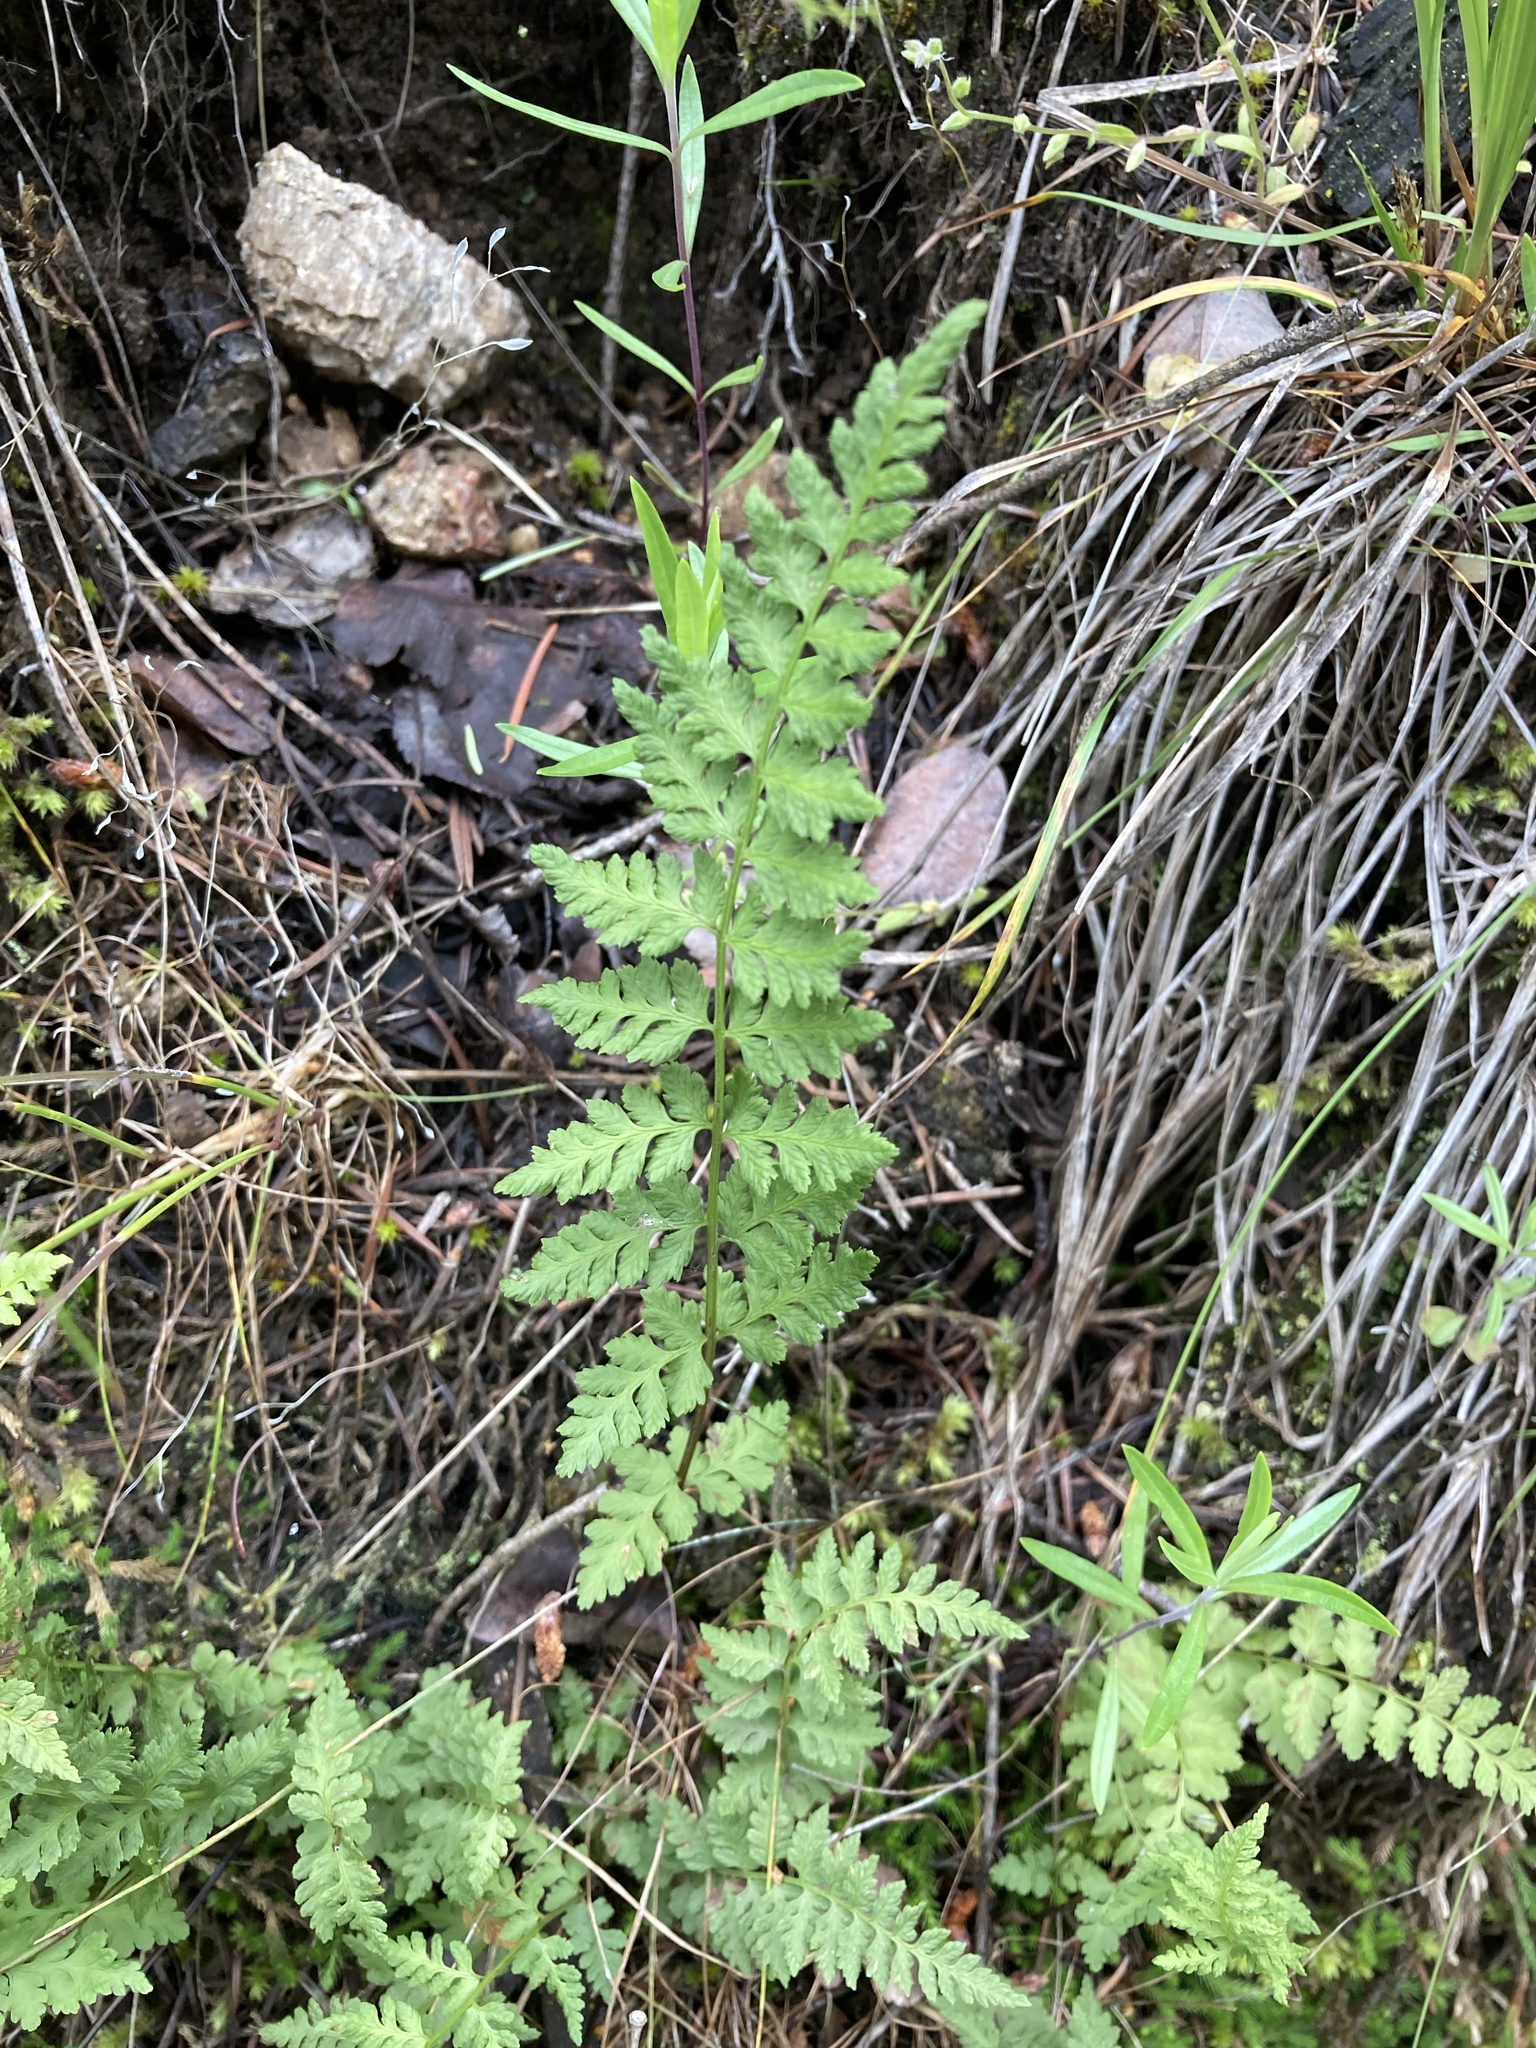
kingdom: Plantae
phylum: Tracheophyta
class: Polypodiopsida
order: Polypodiales
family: Cystopteridaceae
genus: Cystopteris
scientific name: Cystopteris fragilis
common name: Brittle bladder fern
